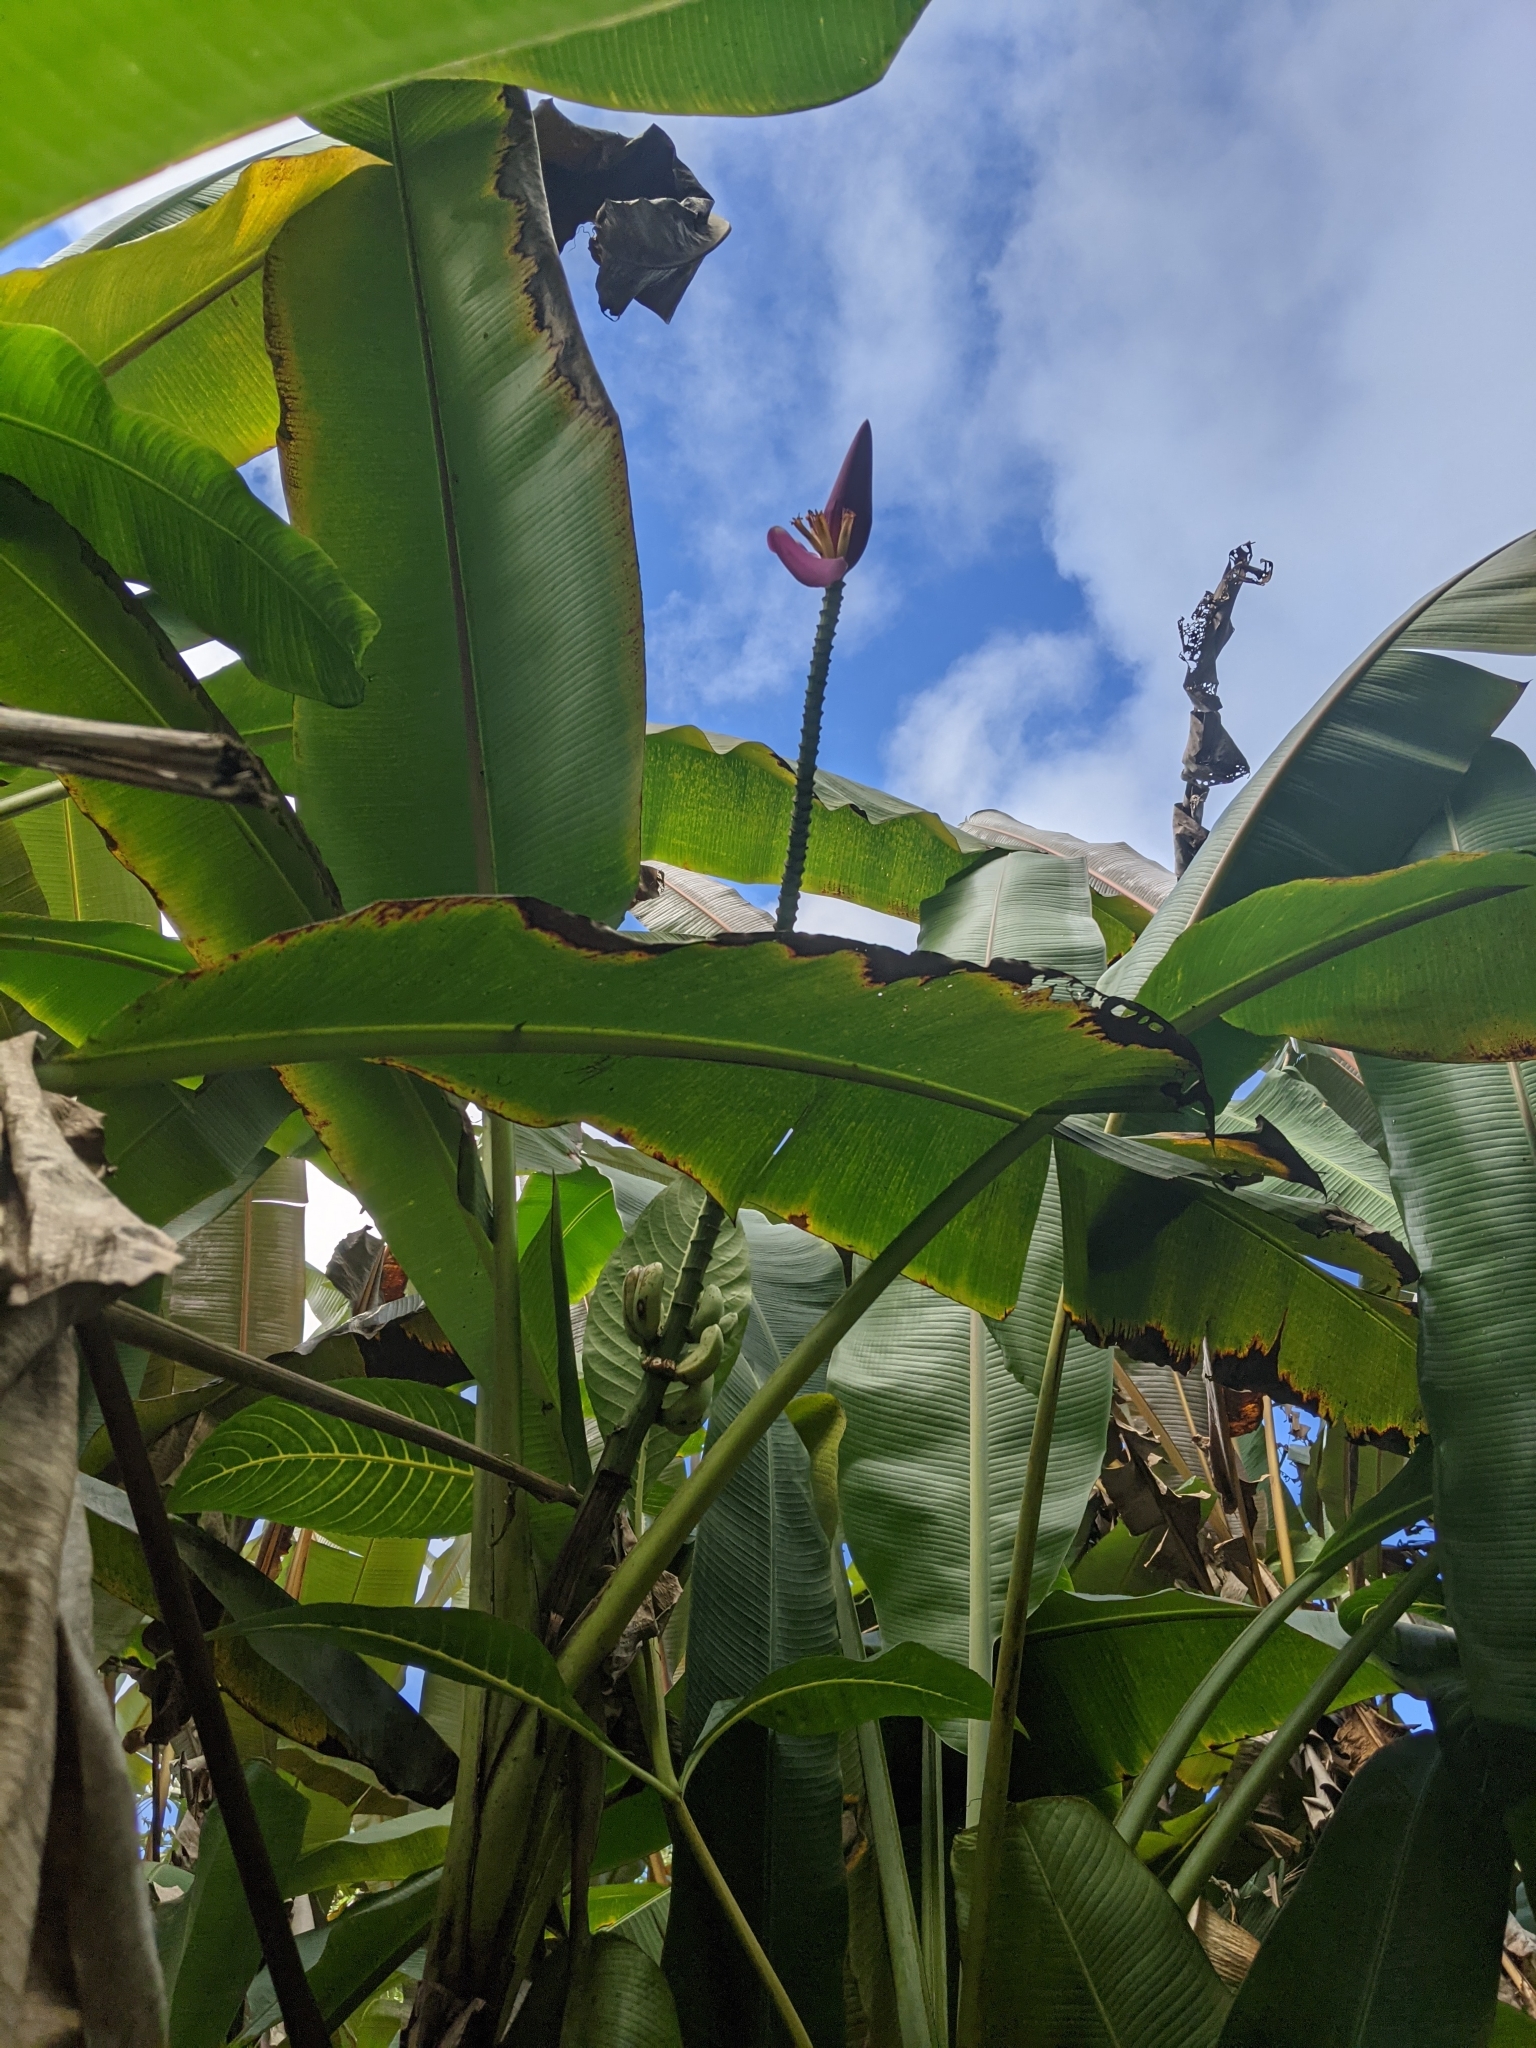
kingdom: Plantae
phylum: Tracheophyta
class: Liliopsida
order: Zingiberales
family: Musaceae
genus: Musa
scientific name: Musa ornata
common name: Flowering banana
